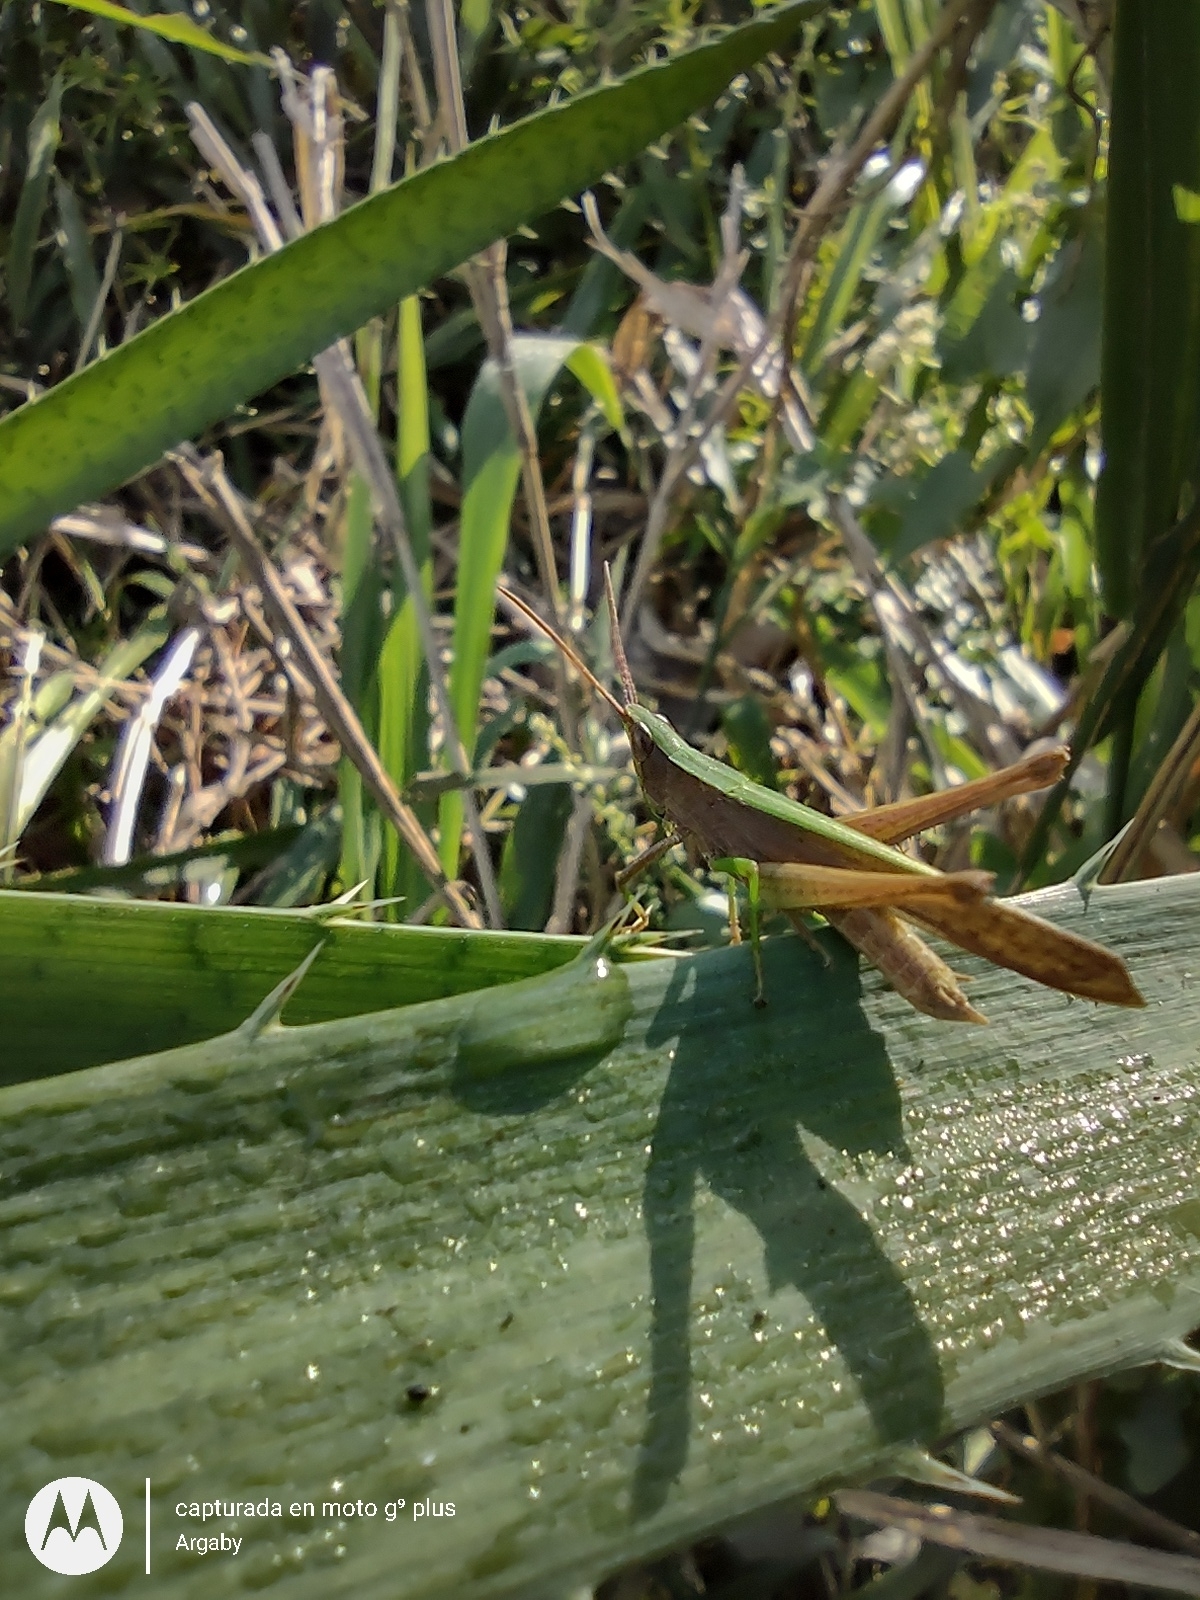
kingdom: Animalia
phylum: Arthropoda
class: Insecta
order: Orthoptera
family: Acrididae
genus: Metaleptea
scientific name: Metaleptea adspersa
